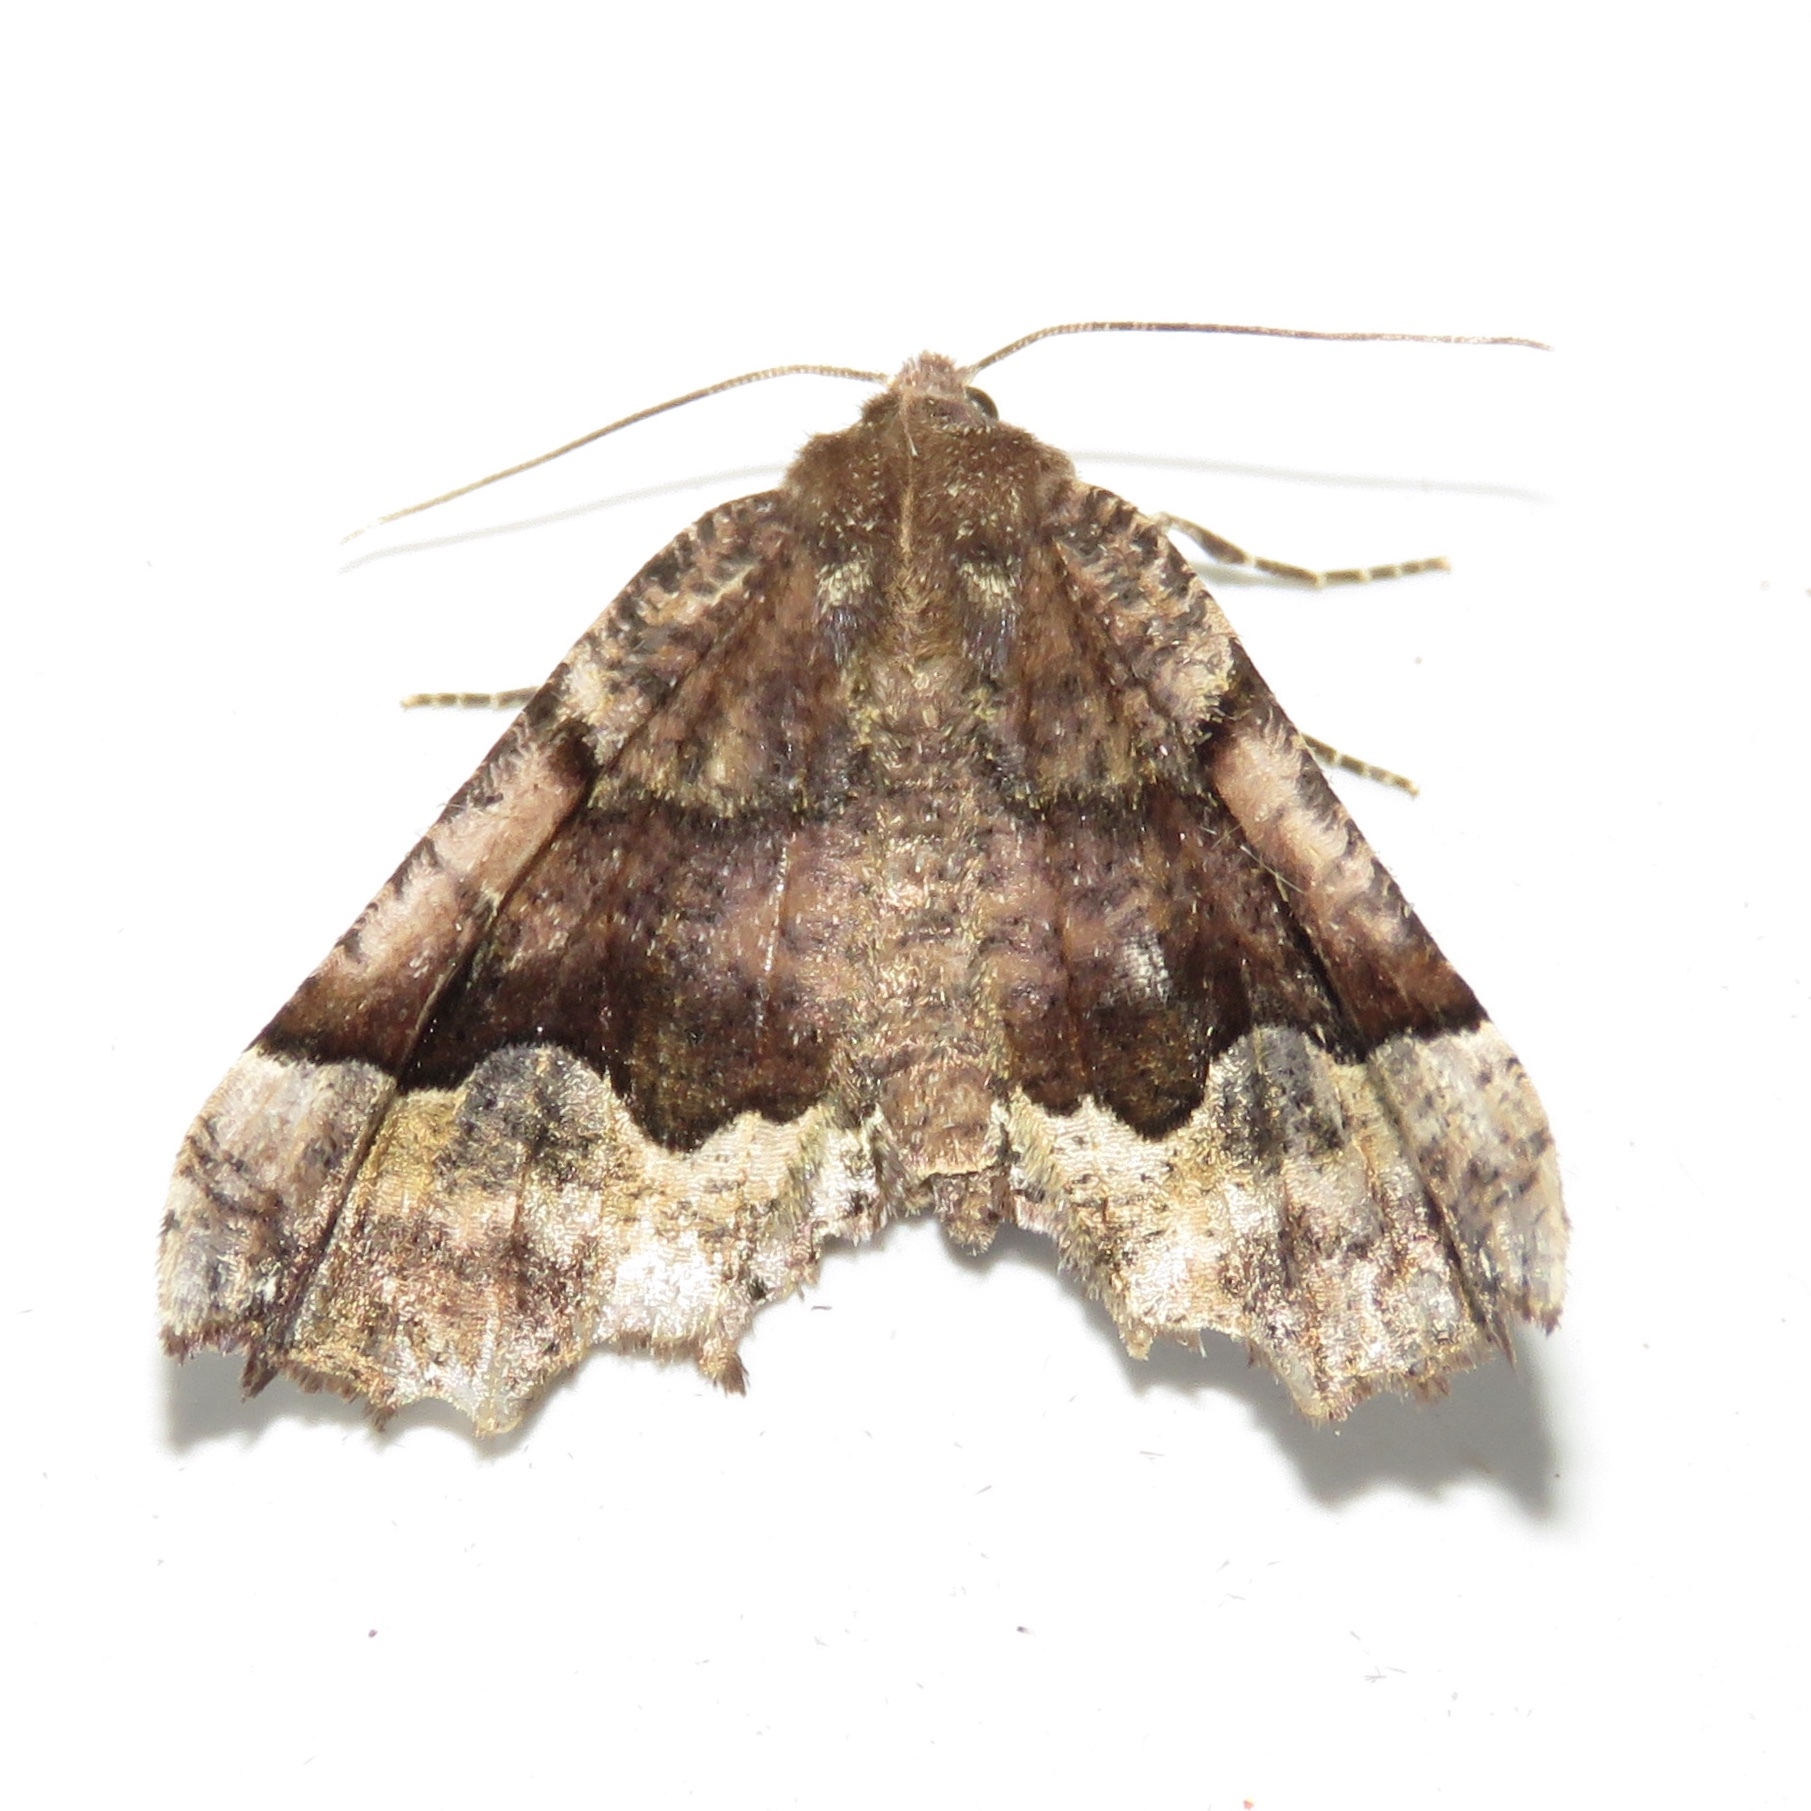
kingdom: Animalia
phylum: Arthropoda
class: Insecta
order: Lepidoptera
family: Geometridae
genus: Pero
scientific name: Pero morrisonaria
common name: Morrison's pero
